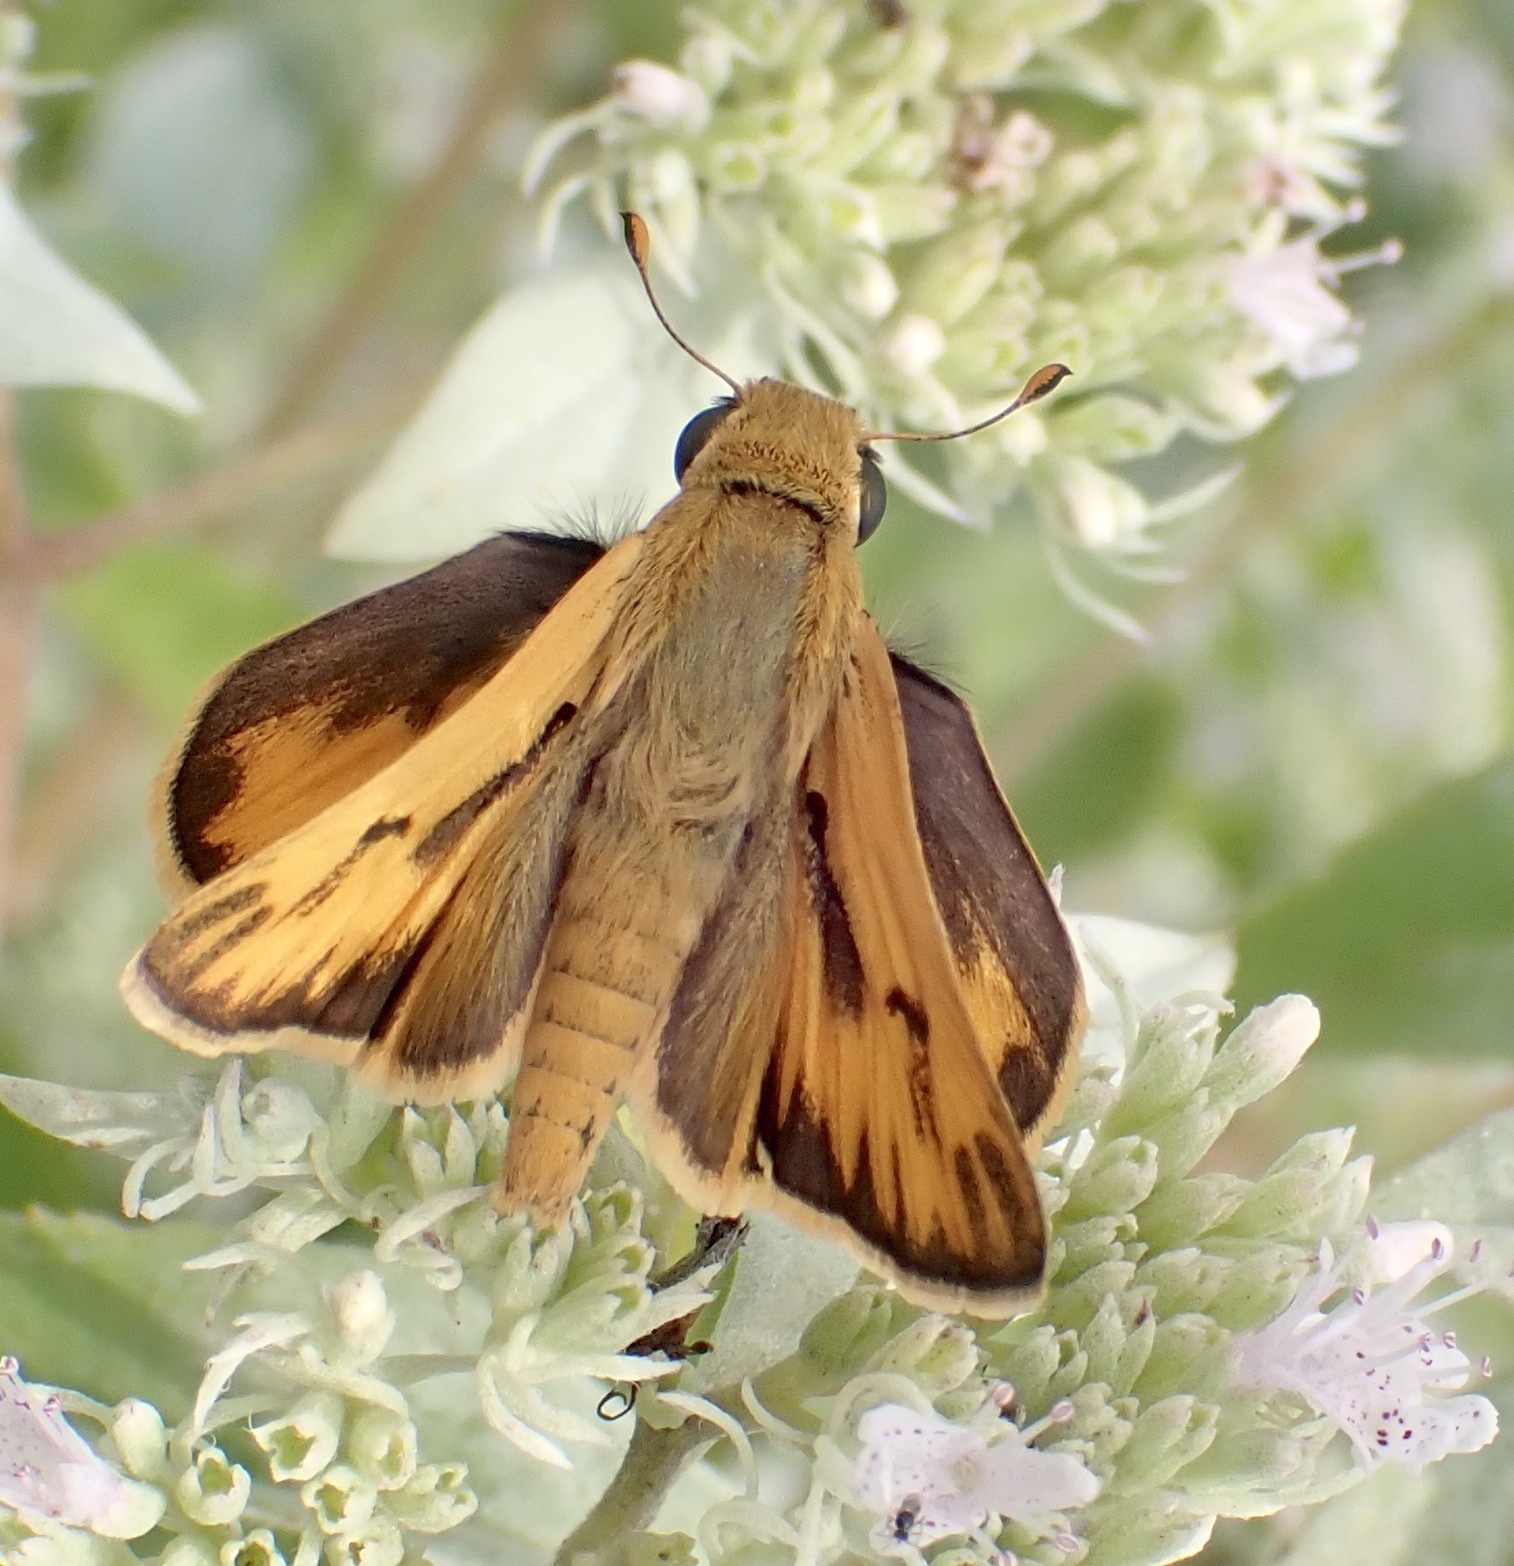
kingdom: Animalia
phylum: Arthropoda
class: Insecta
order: Lepidoptera
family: Hesperiidae
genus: Hylephila
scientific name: Hylephila phyleus
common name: Fiery skipper
